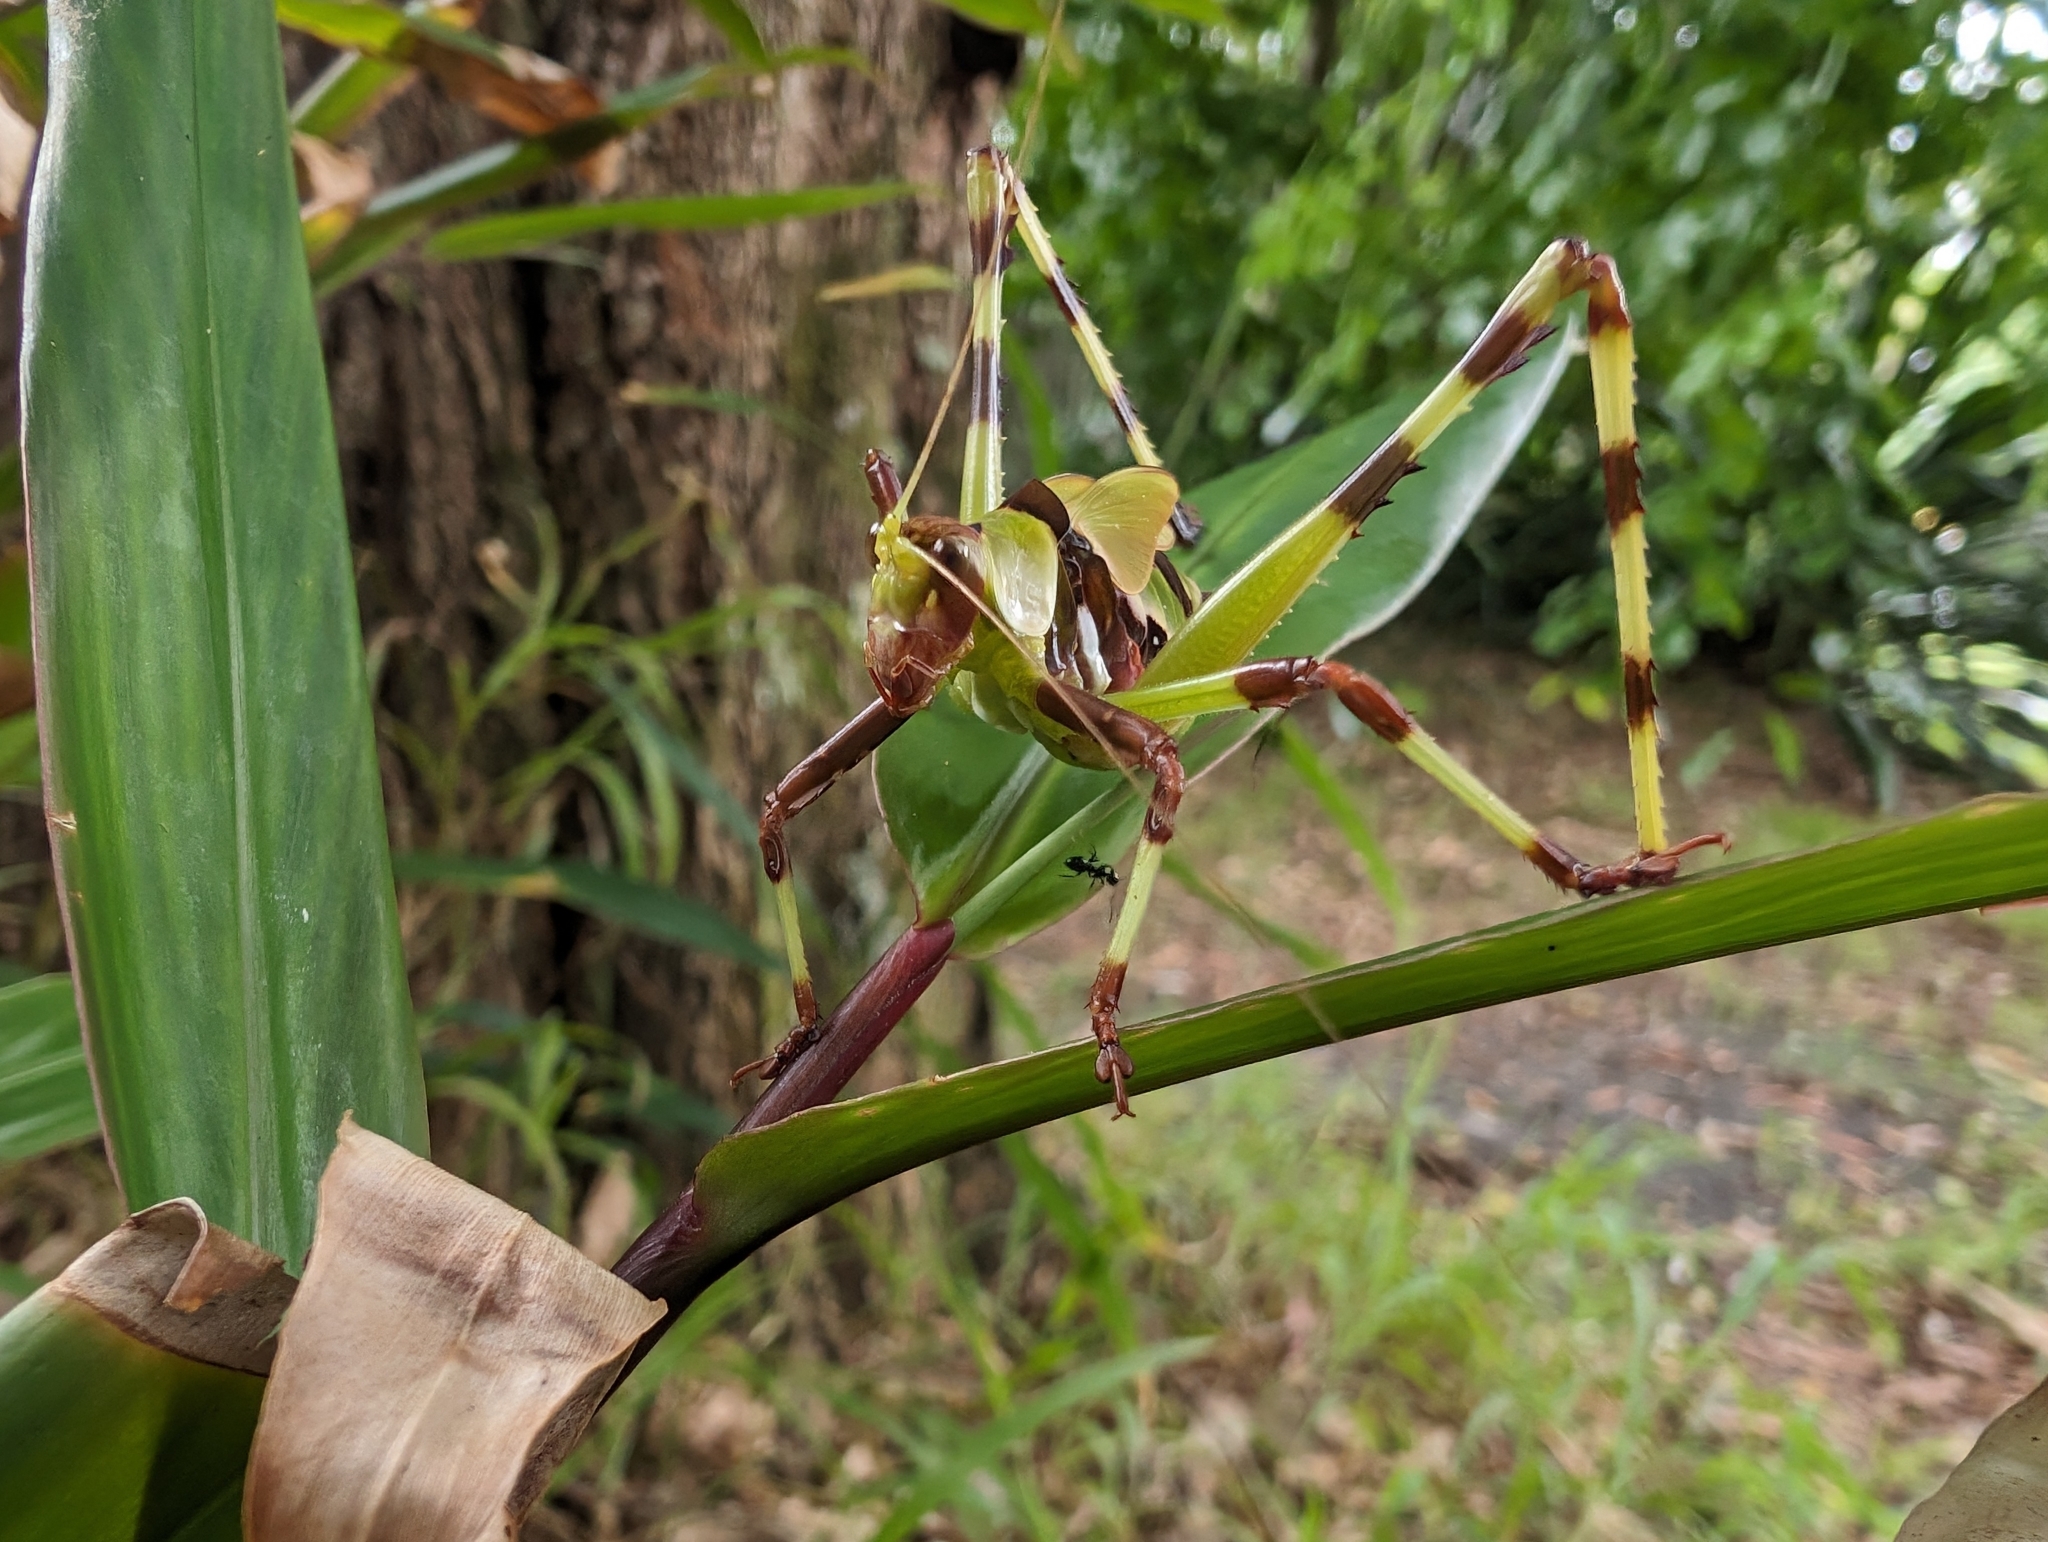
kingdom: Animalia
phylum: Arthropoda
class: Insecta
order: Orthoptera
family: Tettigoniidae
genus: Ephippitytha
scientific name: Ephippitytha trigintiduoguttata
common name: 32-spotted katydid
